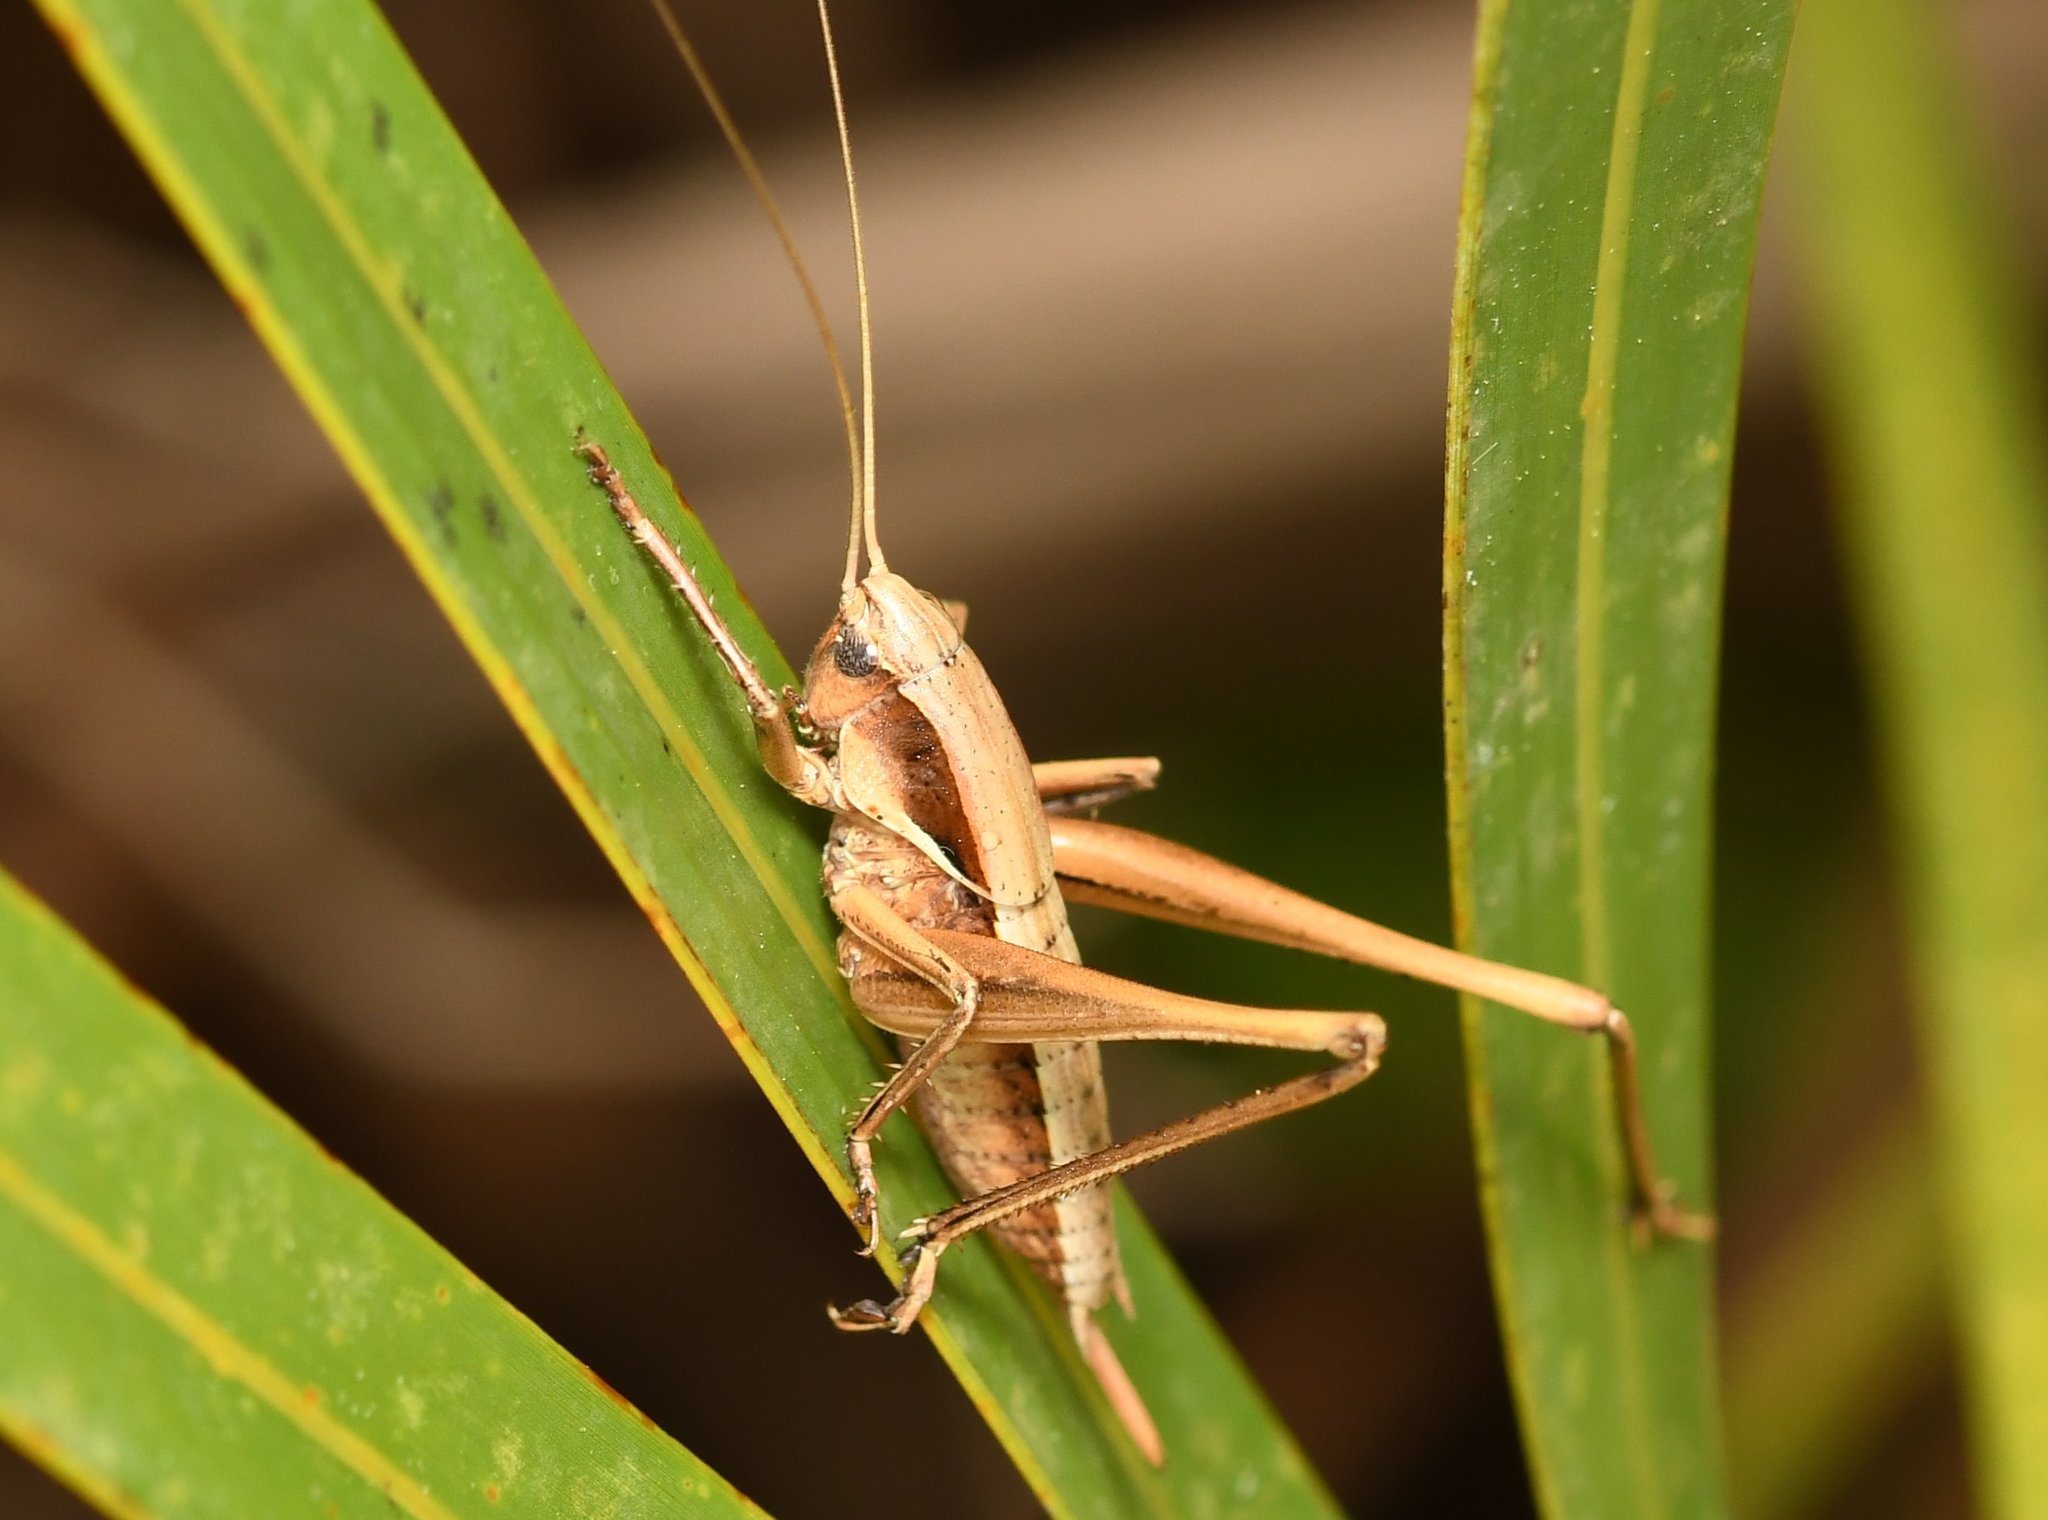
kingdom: Animalia
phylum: Arthropoda
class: Insecta
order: Orthoptera
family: Tettigoniidae
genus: Atlanticus
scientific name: Atlanticus glaber
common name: Smooth shield-bearer
